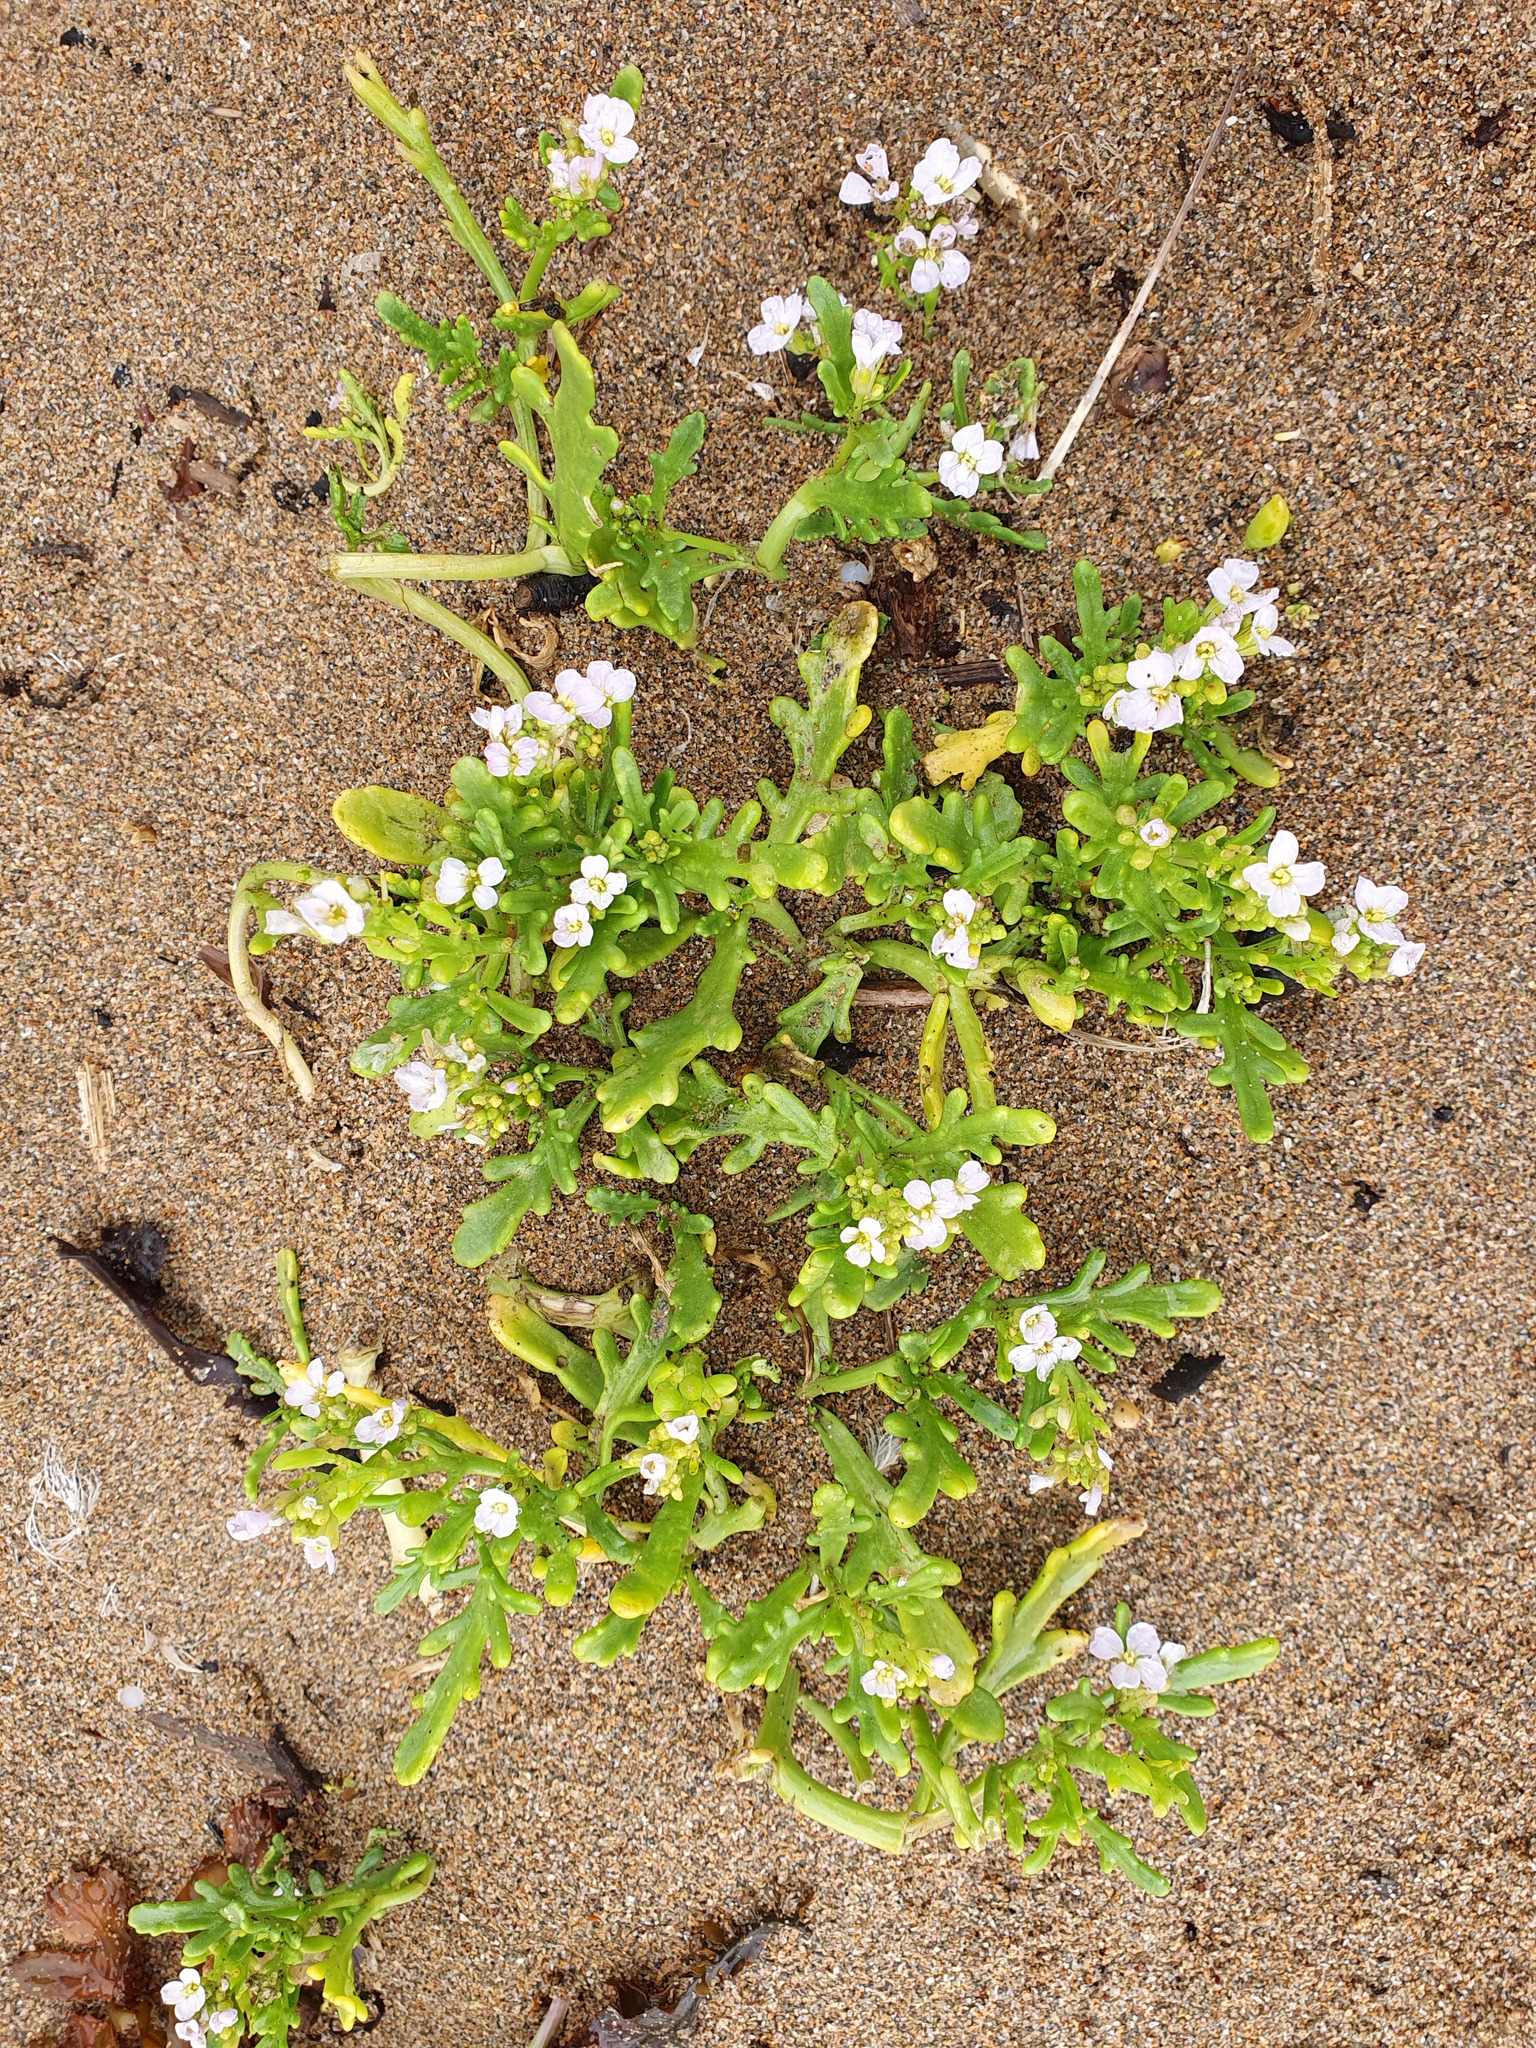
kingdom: Plantae
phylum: Tracheophyta
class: Magnoliopsida
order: Brassicales
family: Brassicaceae
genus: Cakile
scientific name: Cakile maritima
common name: Sea rocket
